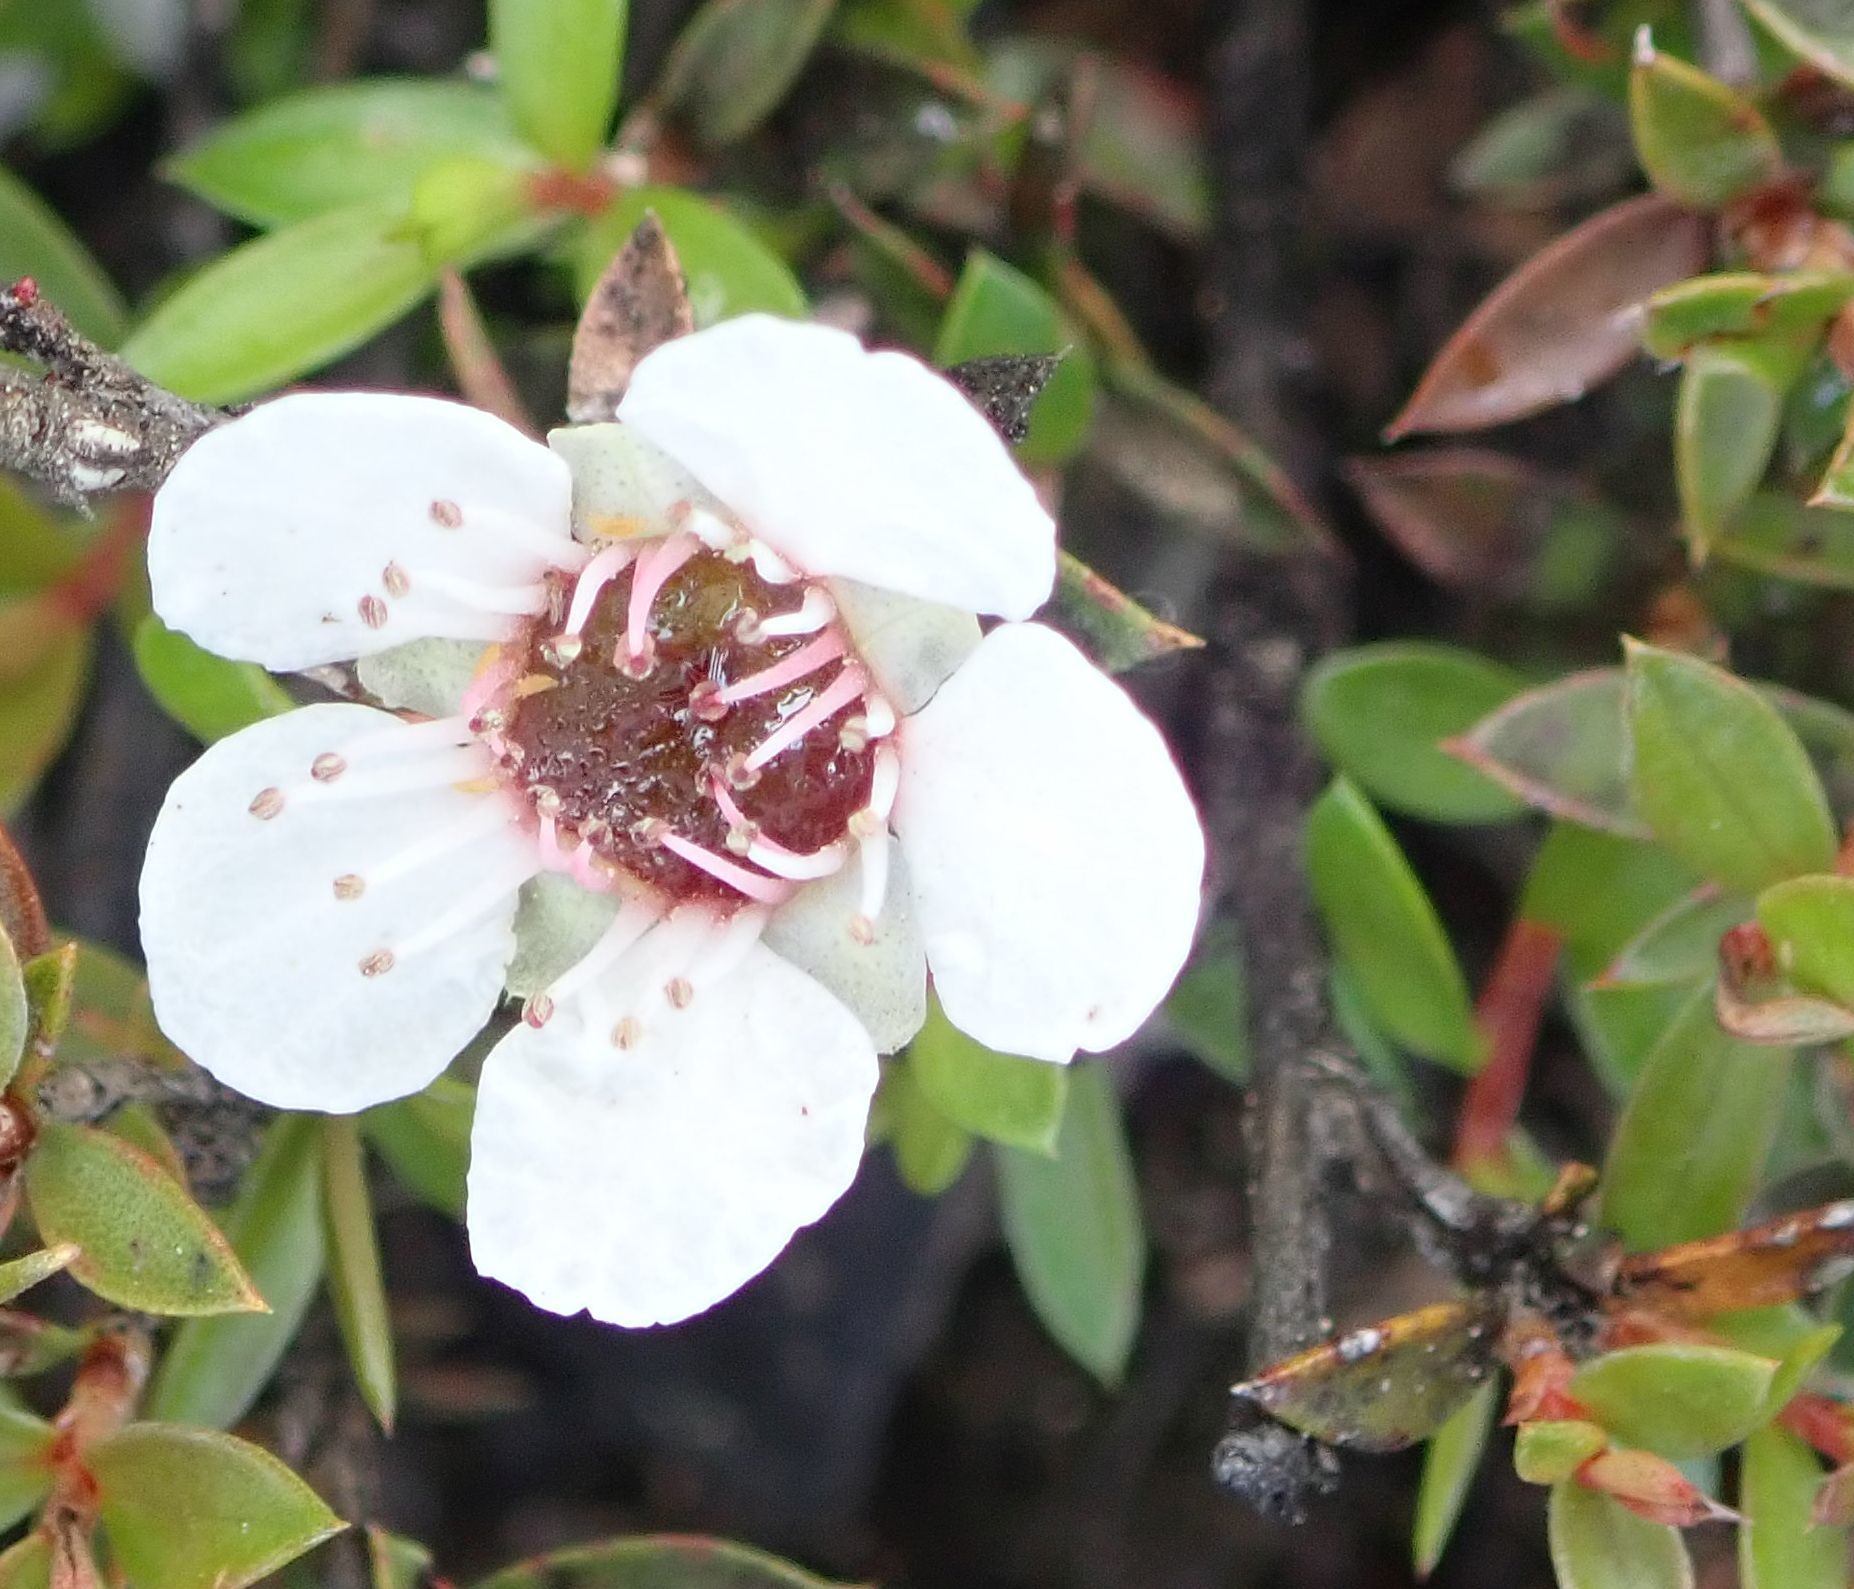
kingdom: Plantae
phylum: Tracheophyta
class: Magnoliopsida
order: Myrtales
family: Myrtaceae
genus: Leptospermum
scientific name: Leptospermum scoparium
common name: Broom tea-tree
